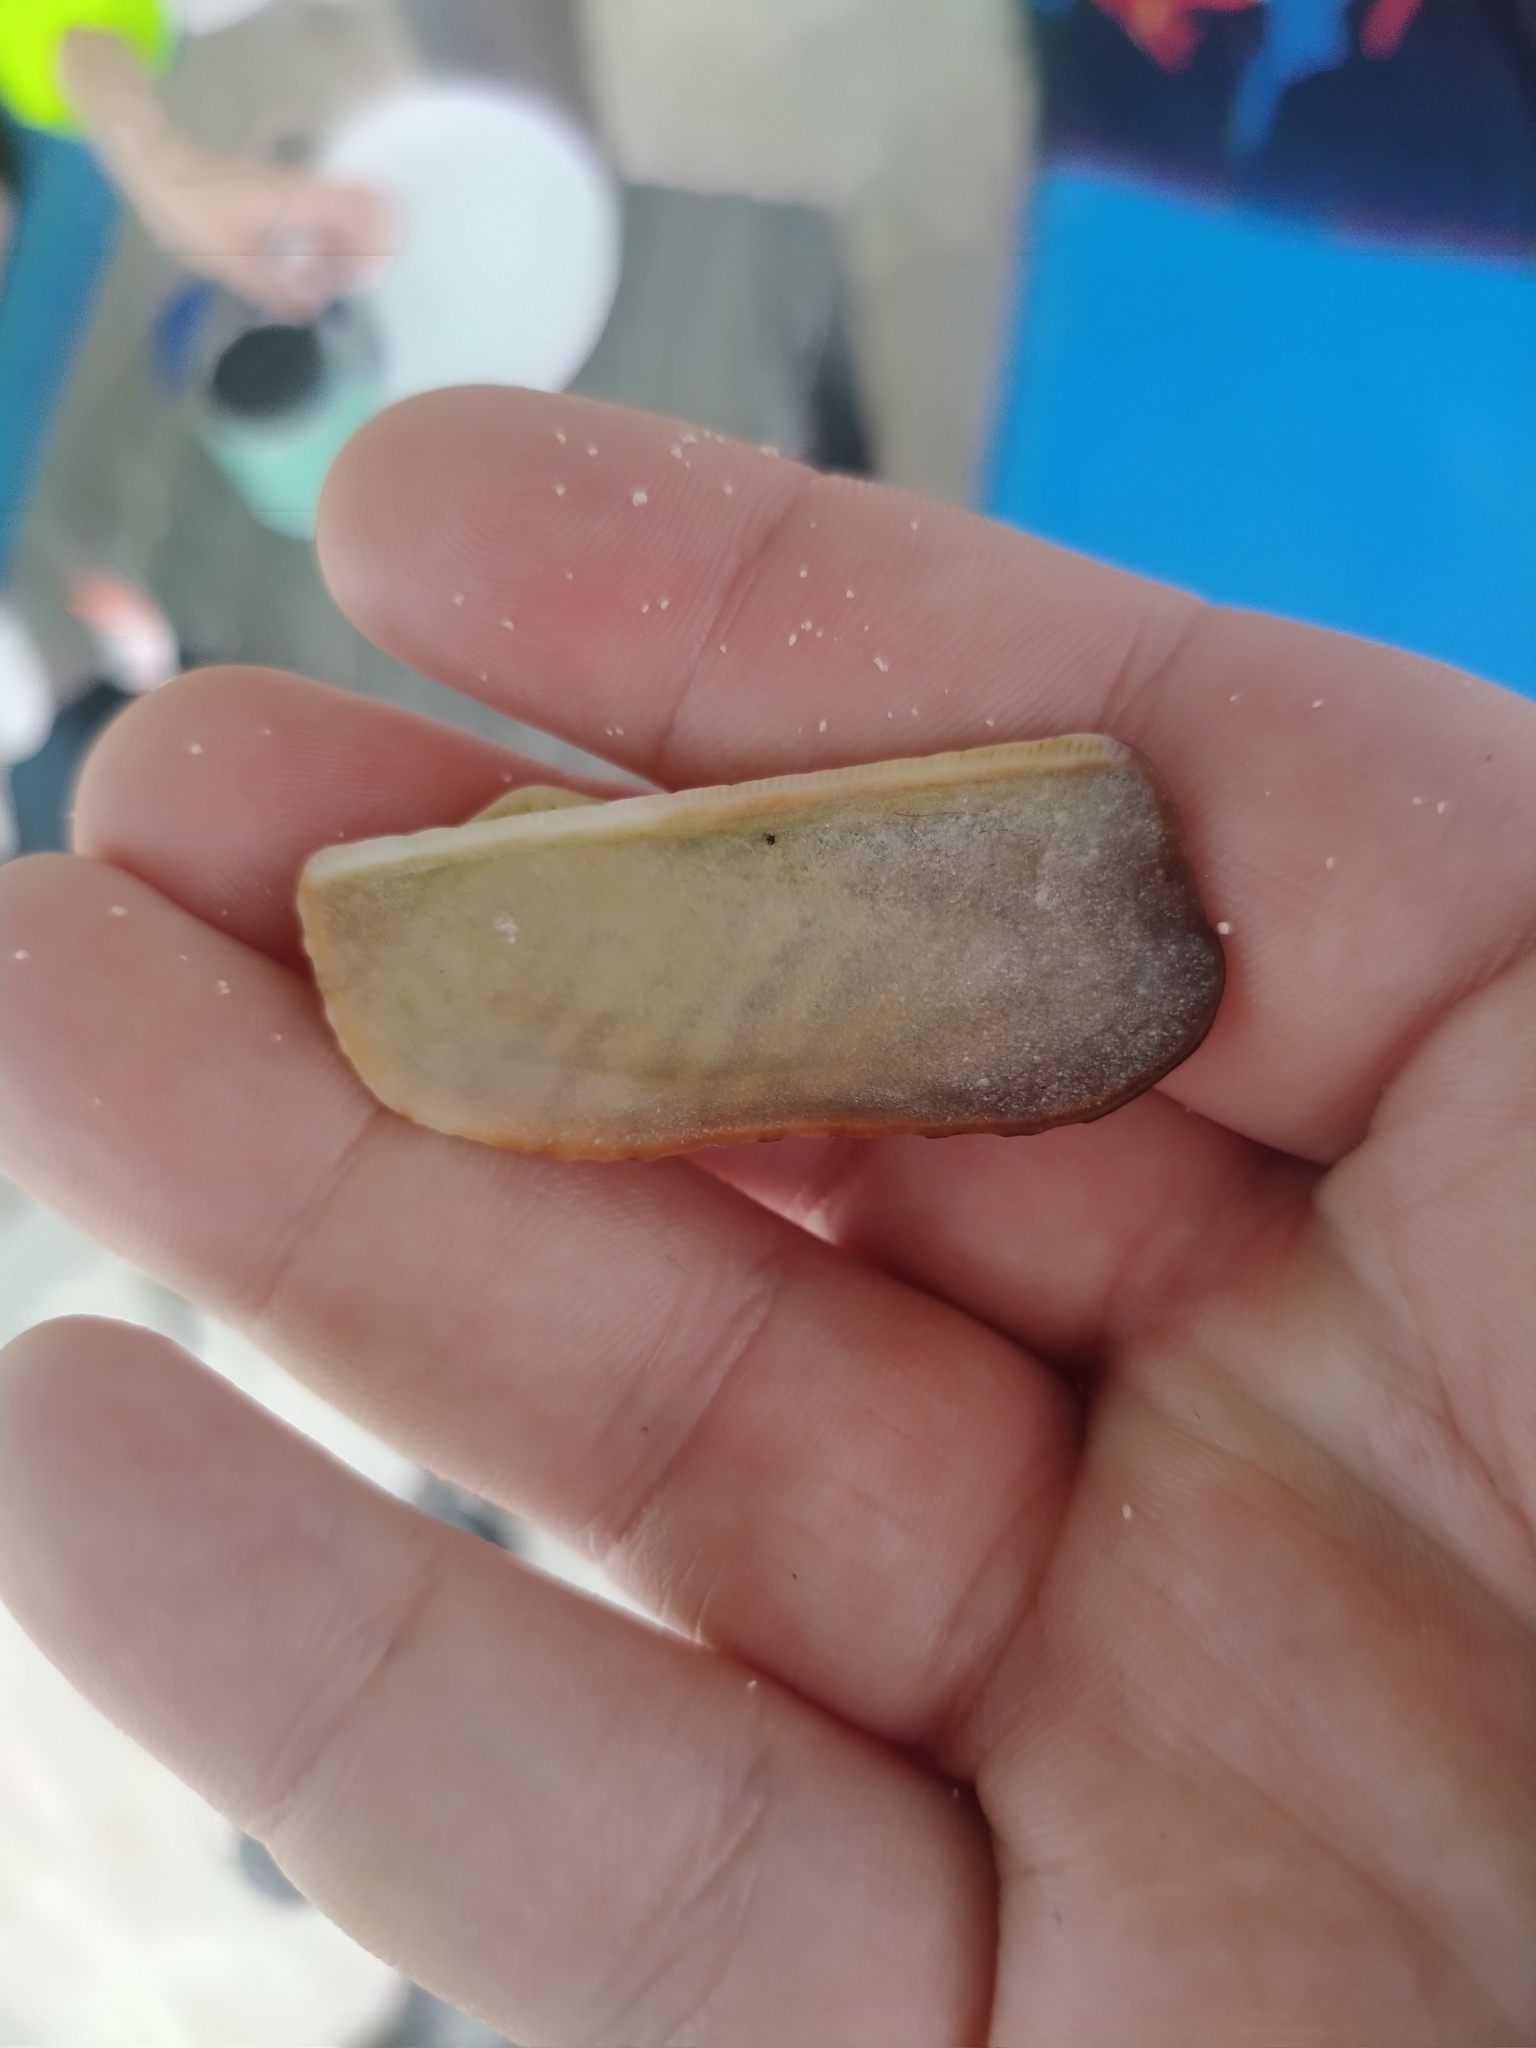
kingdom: Animalia
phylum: Mollusca
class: Bivalvia
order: Arcida
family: Arcidae
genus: Arca
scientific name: Arca zebra
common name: Atlantic turkey wing
